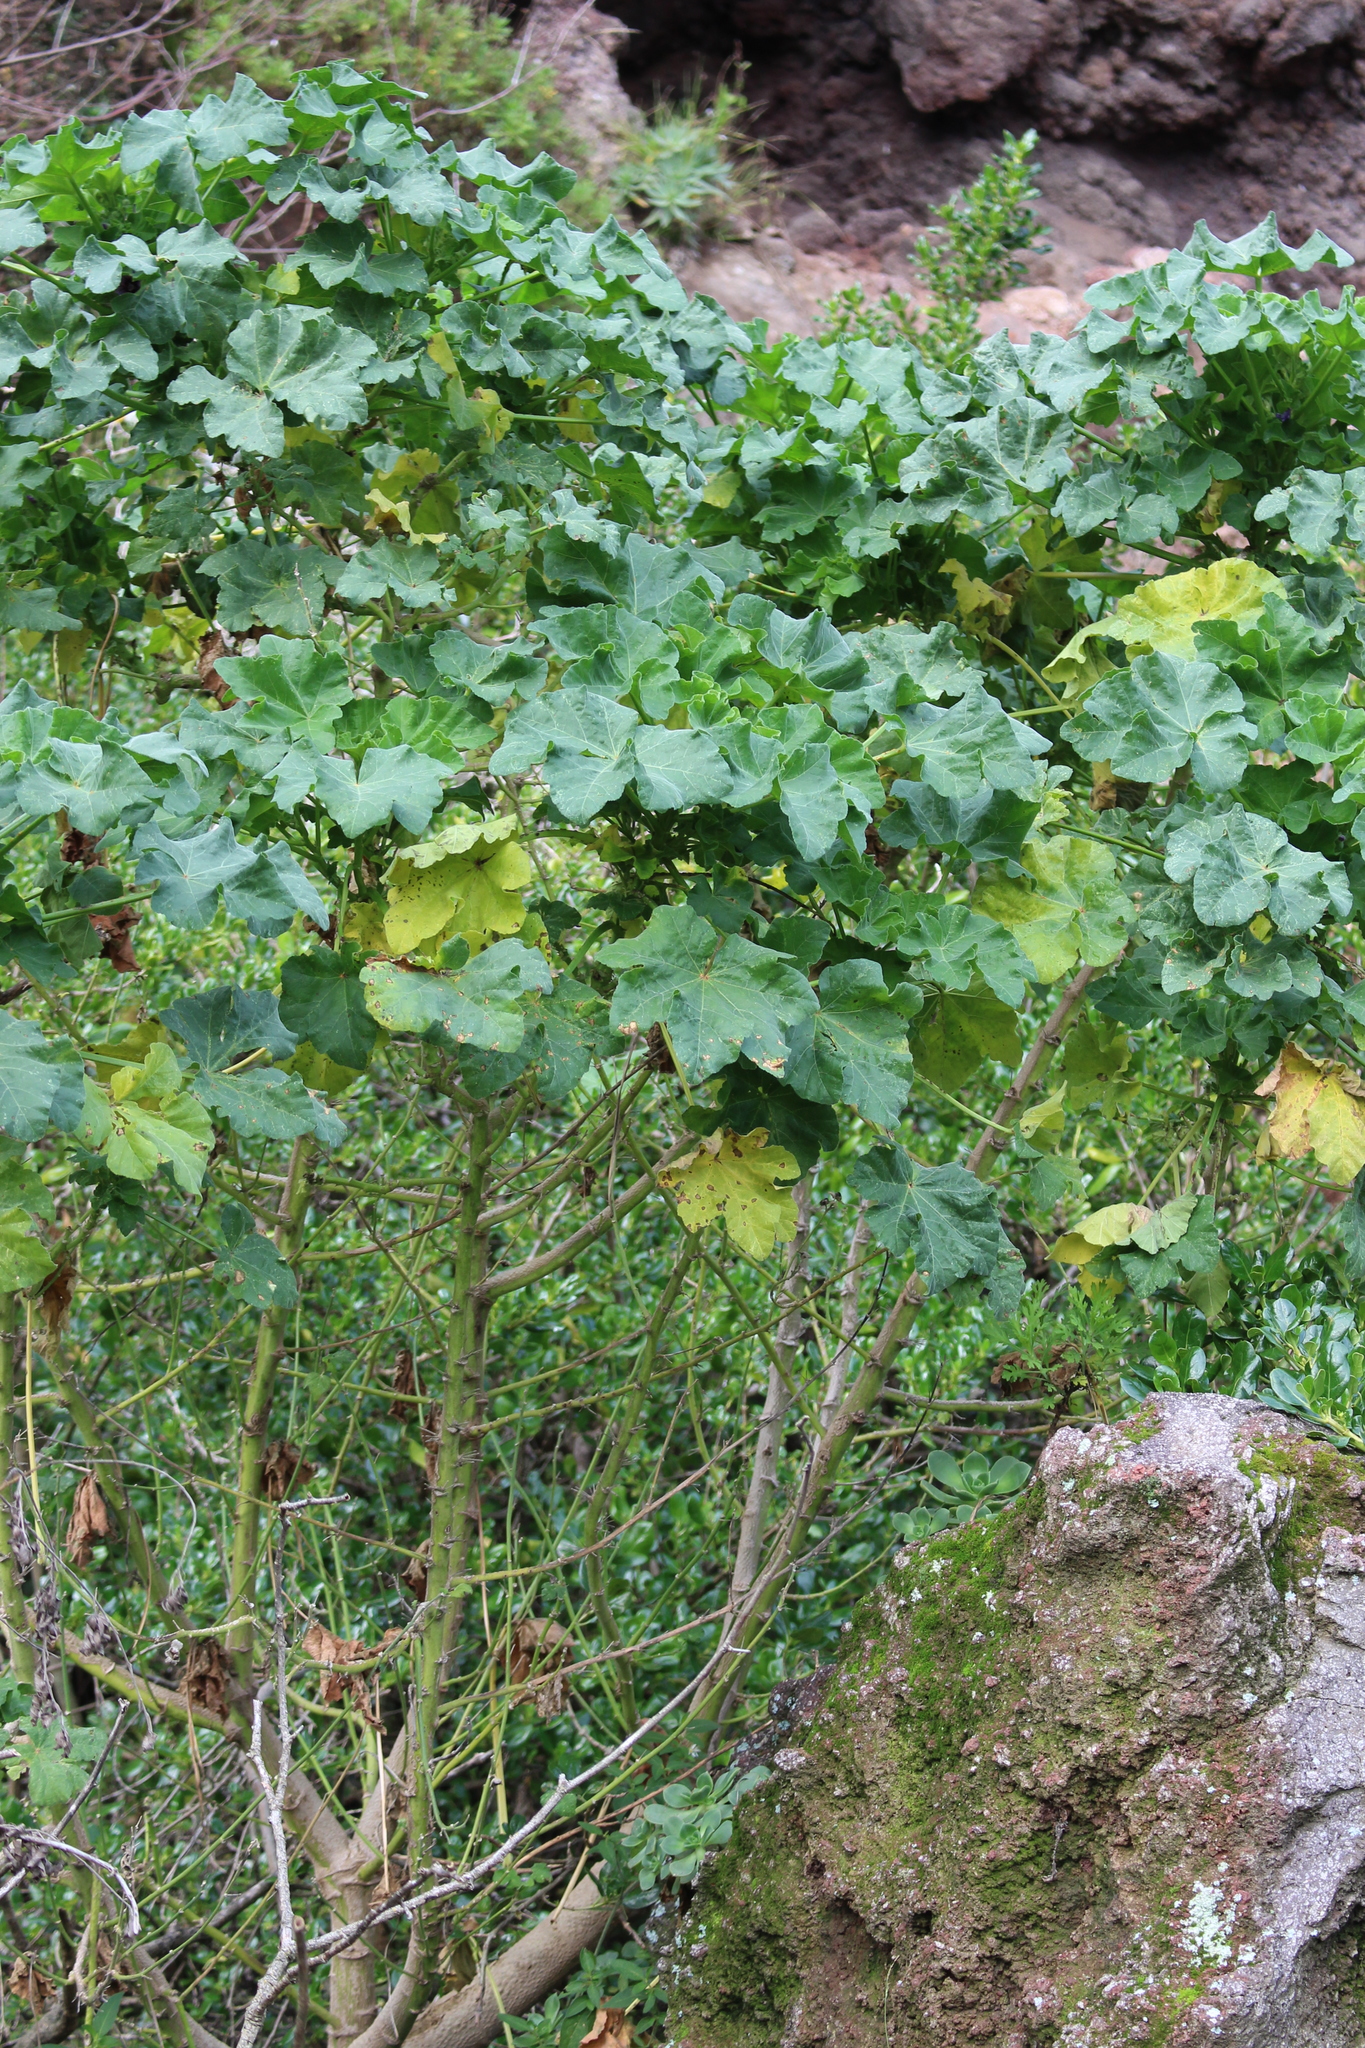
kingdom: Plantae
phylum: Tracheophyta
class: Magnoliopsida
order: Malvales
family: Malvaceae
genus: Malva
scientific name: Malva arborea
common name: Tree mallow
